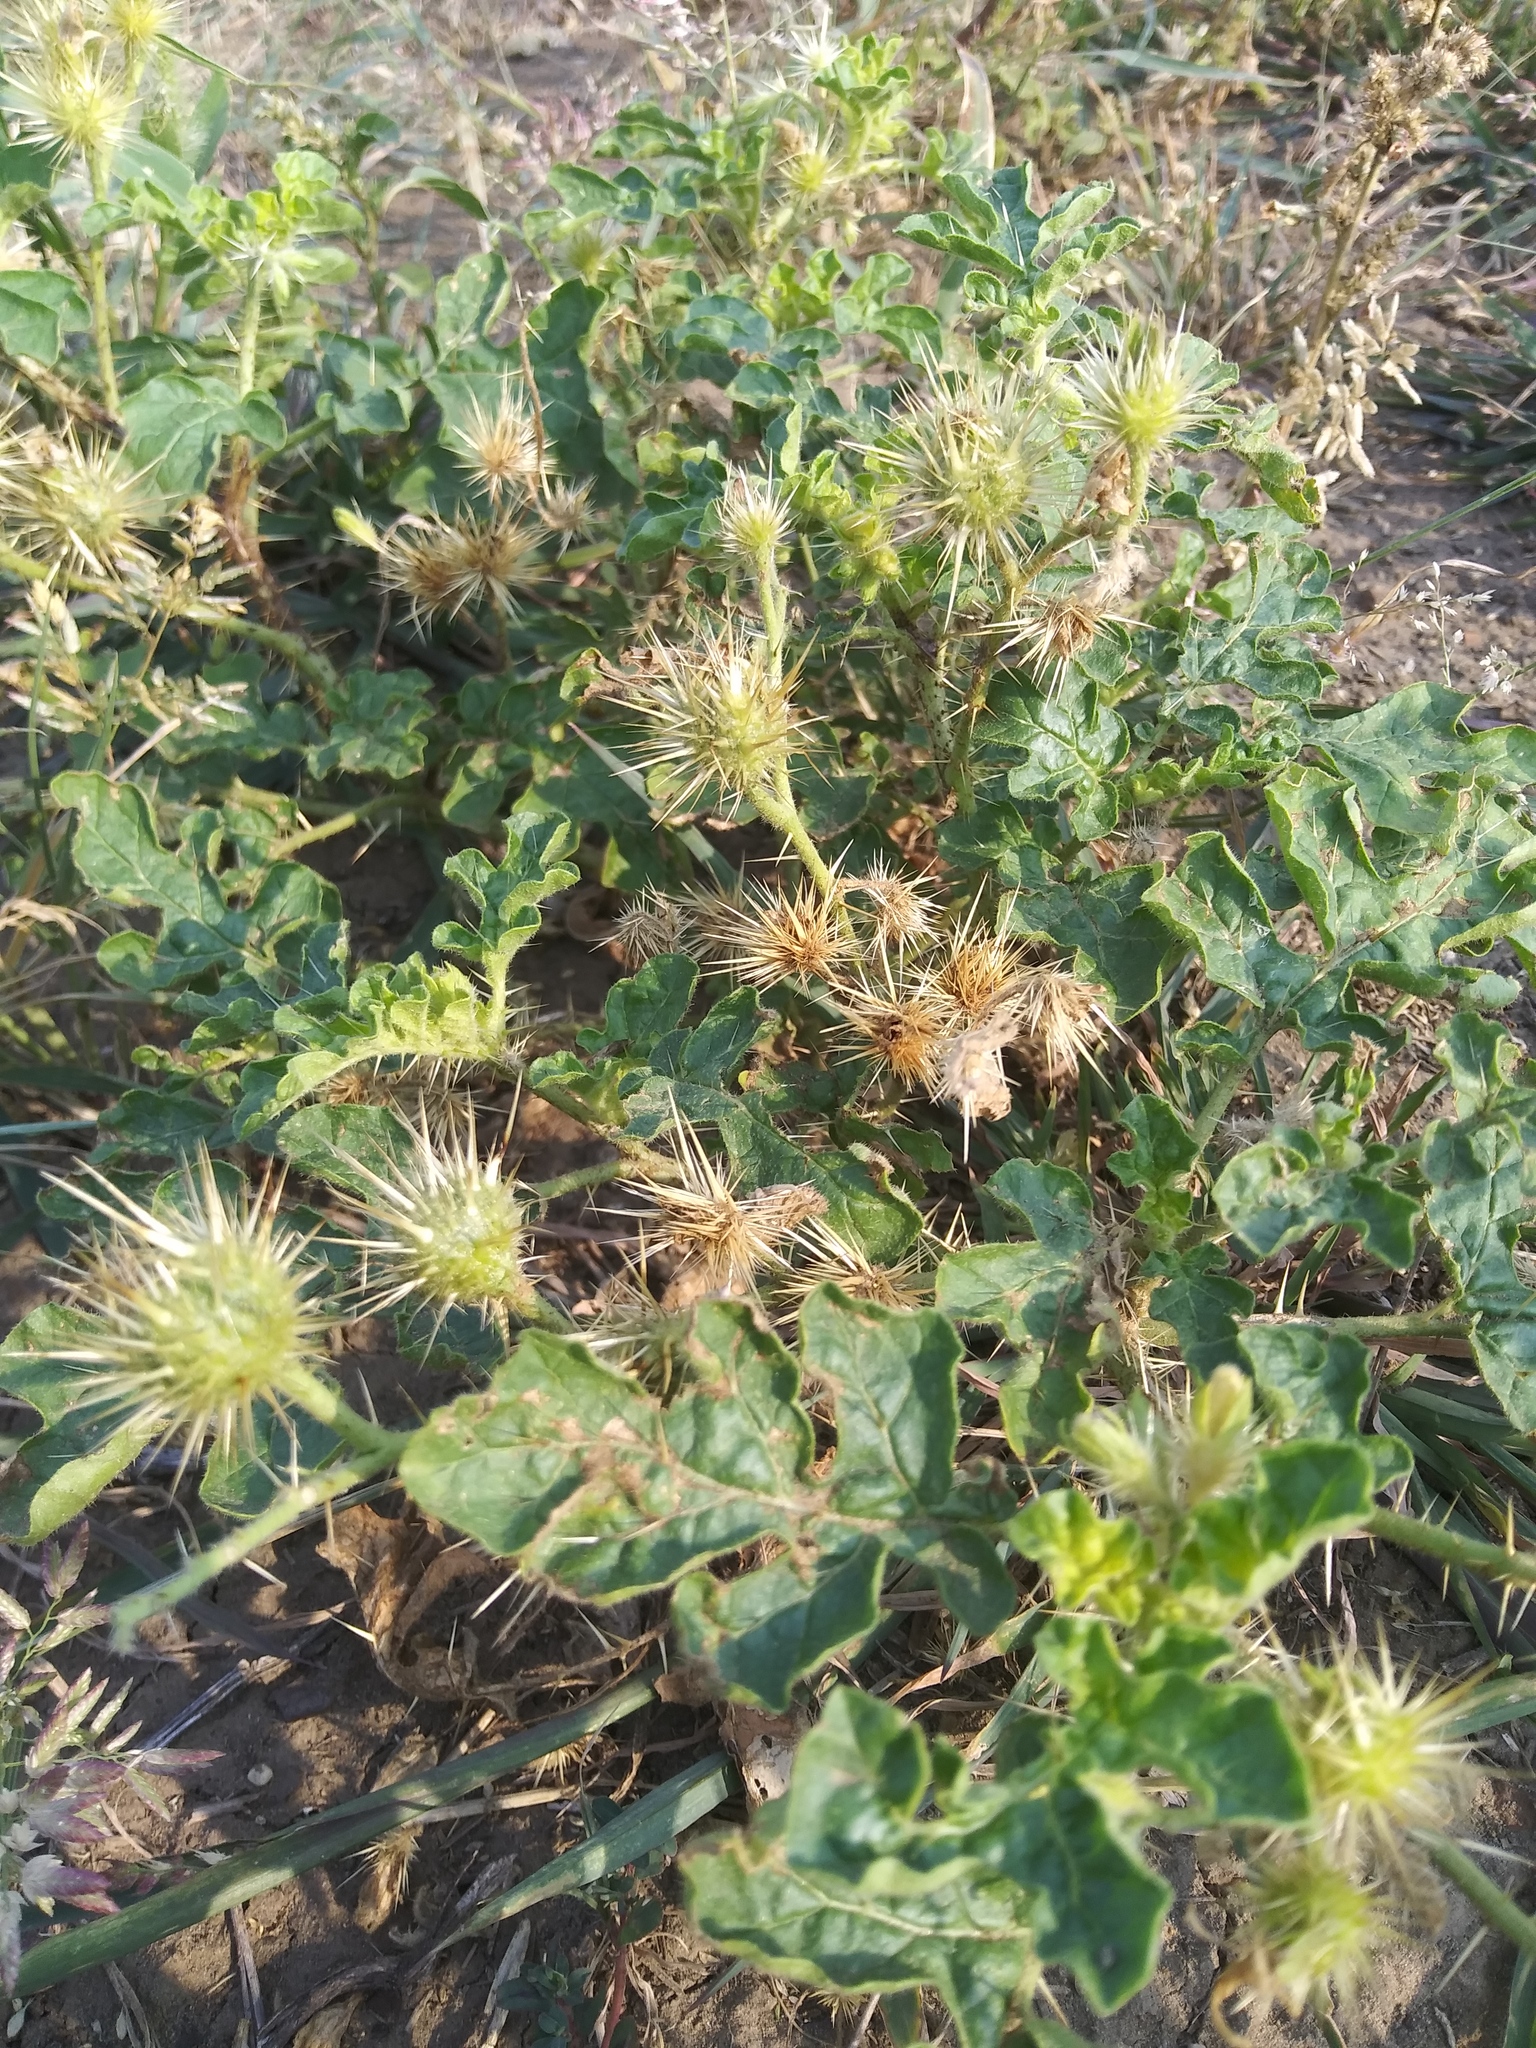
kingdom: Plantae
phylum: Tracheophyta
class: Magnoliopsida
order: Solanales
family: Solanaceae
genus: Solanum
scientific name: Solanum angustifolium
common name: Buffalobur nightshade
